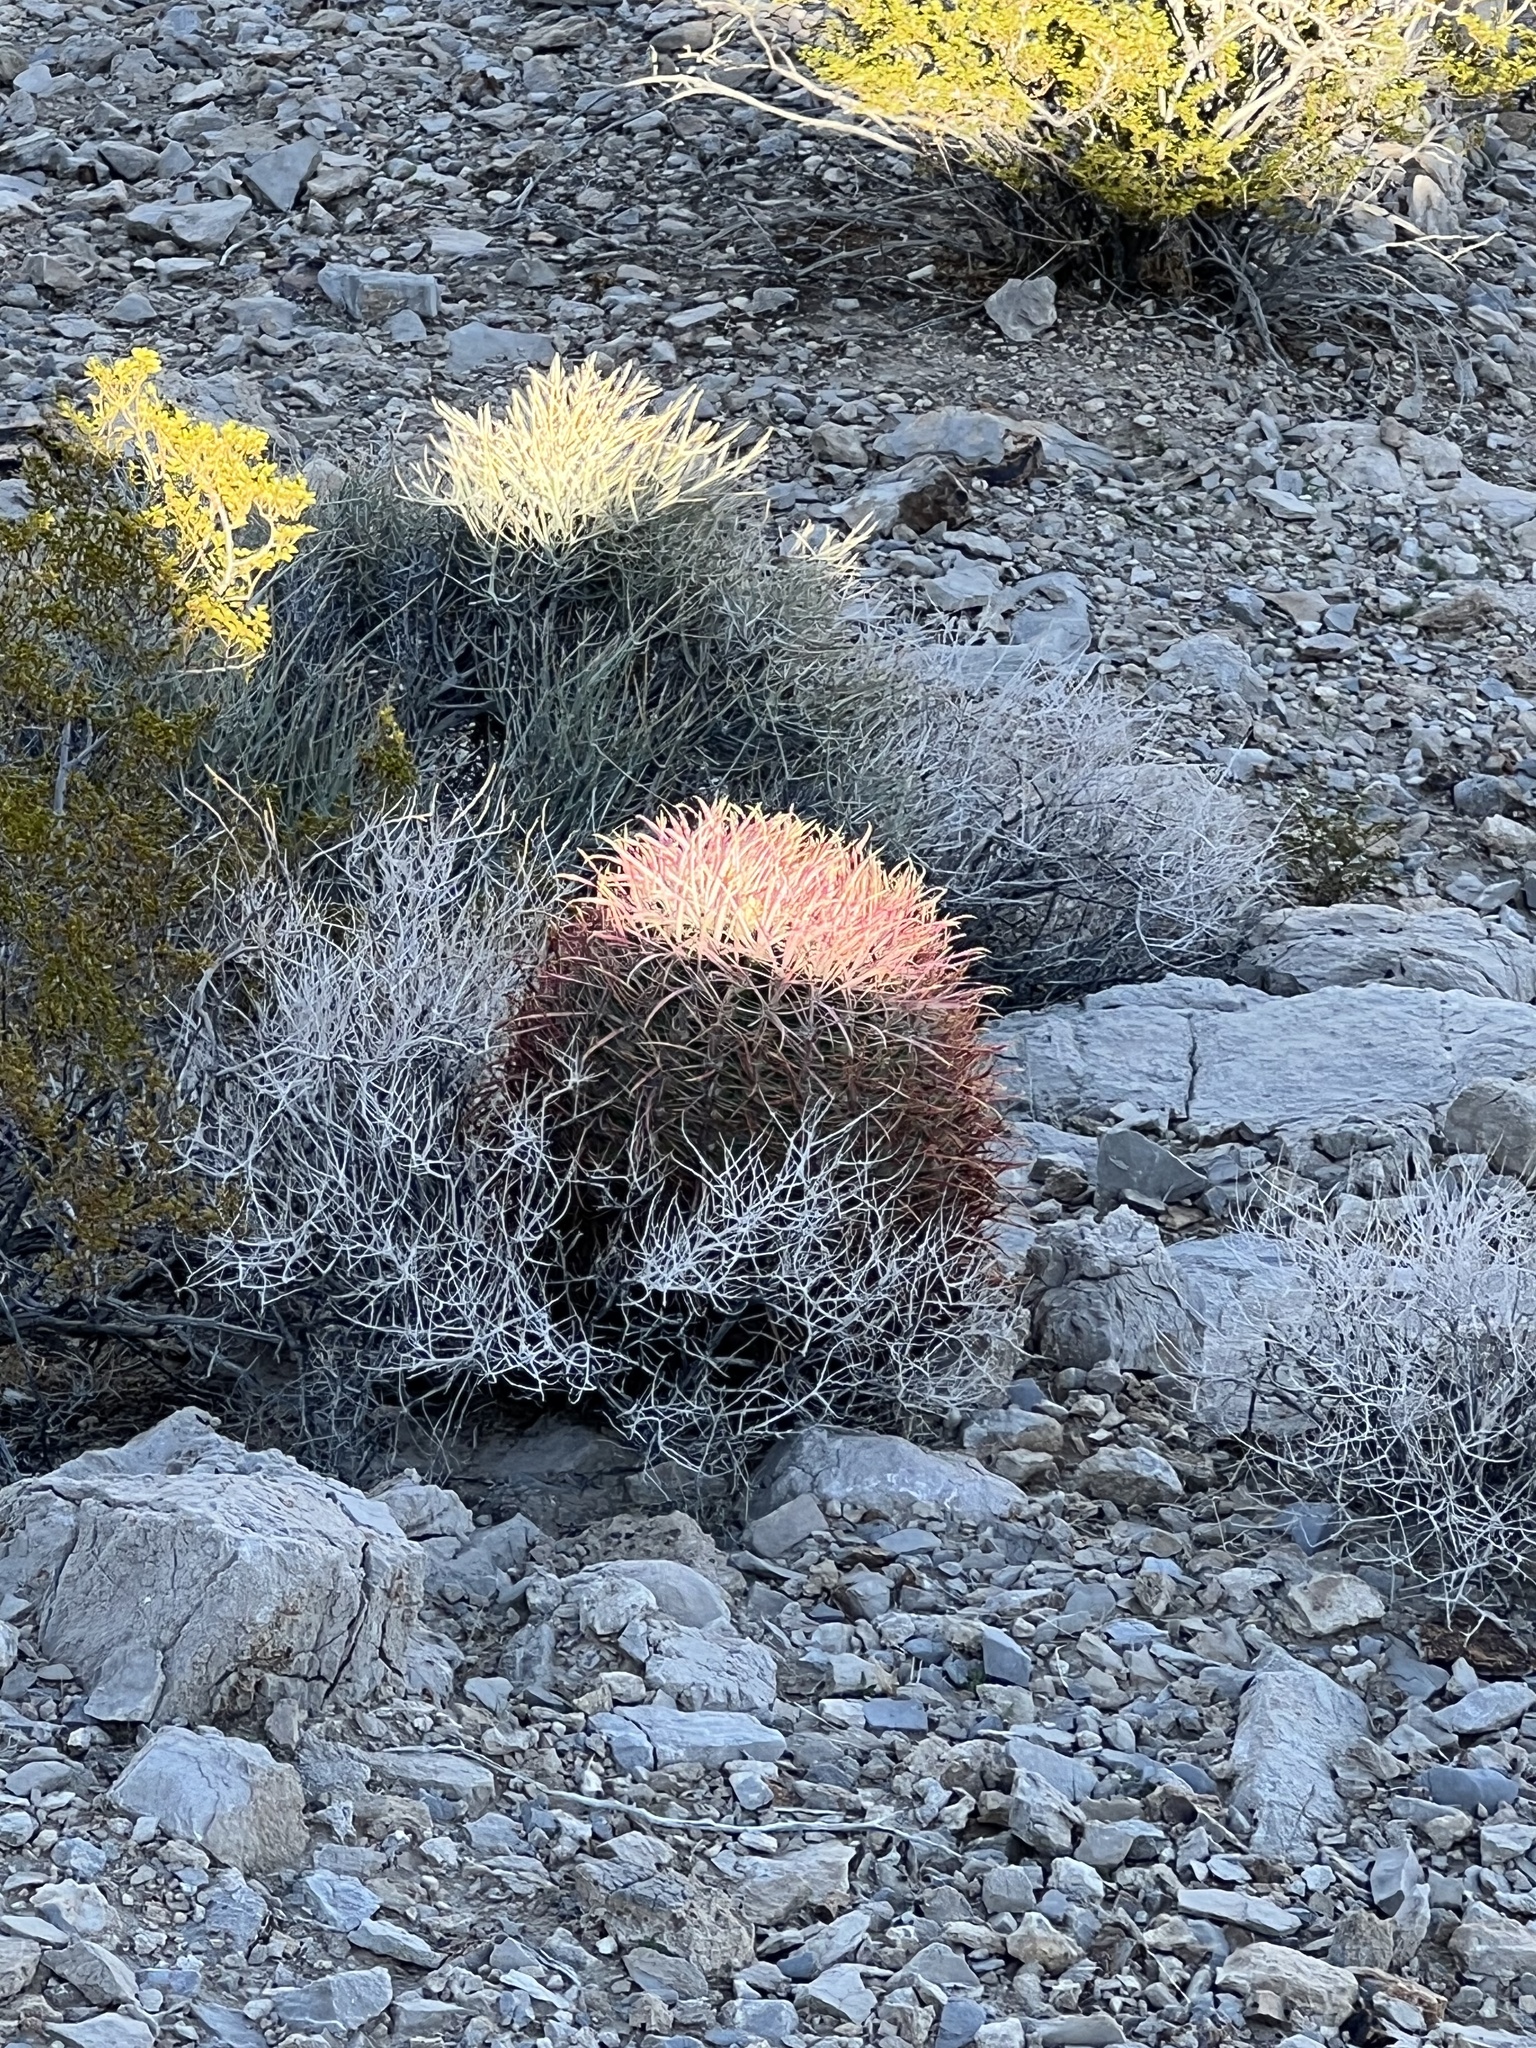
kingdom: Plantae
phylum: Tracheophyta
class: Magnoliopsida
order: Caryophyllales
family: Cactaceae
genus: Ferocactus
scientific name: Ferocactus cylindraceus
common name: California barrel cactus
